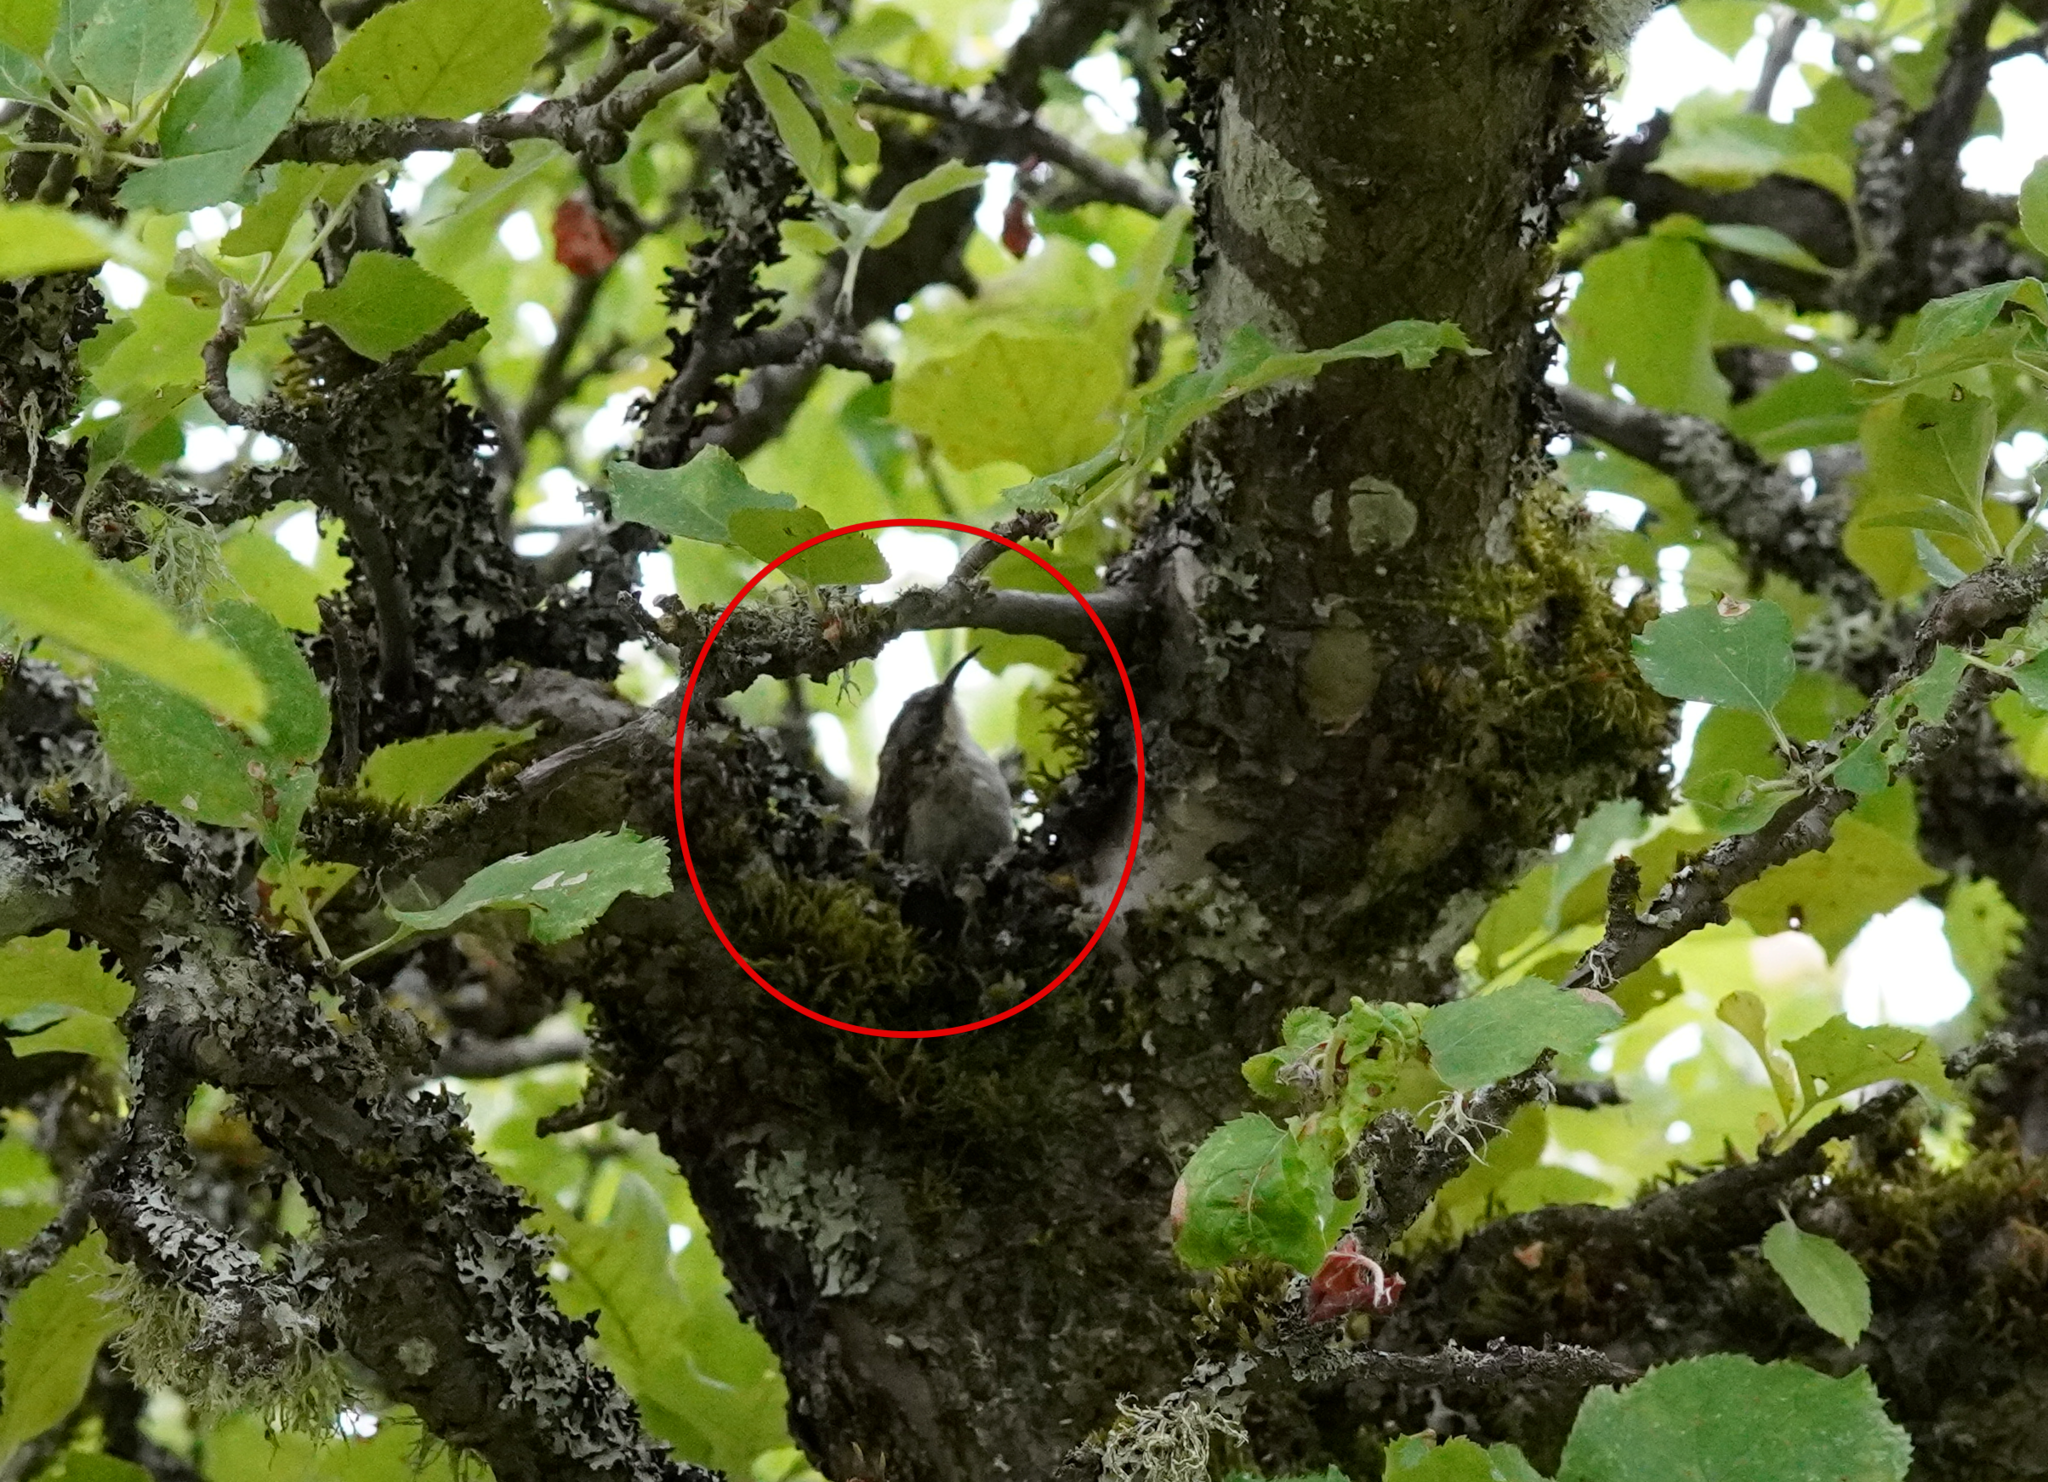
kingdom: Animalia
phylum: Chordata
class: Aves
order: Passeriformes
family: Certhiidae
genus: Certhia
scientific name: Certhia americana
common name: Brown creeper
